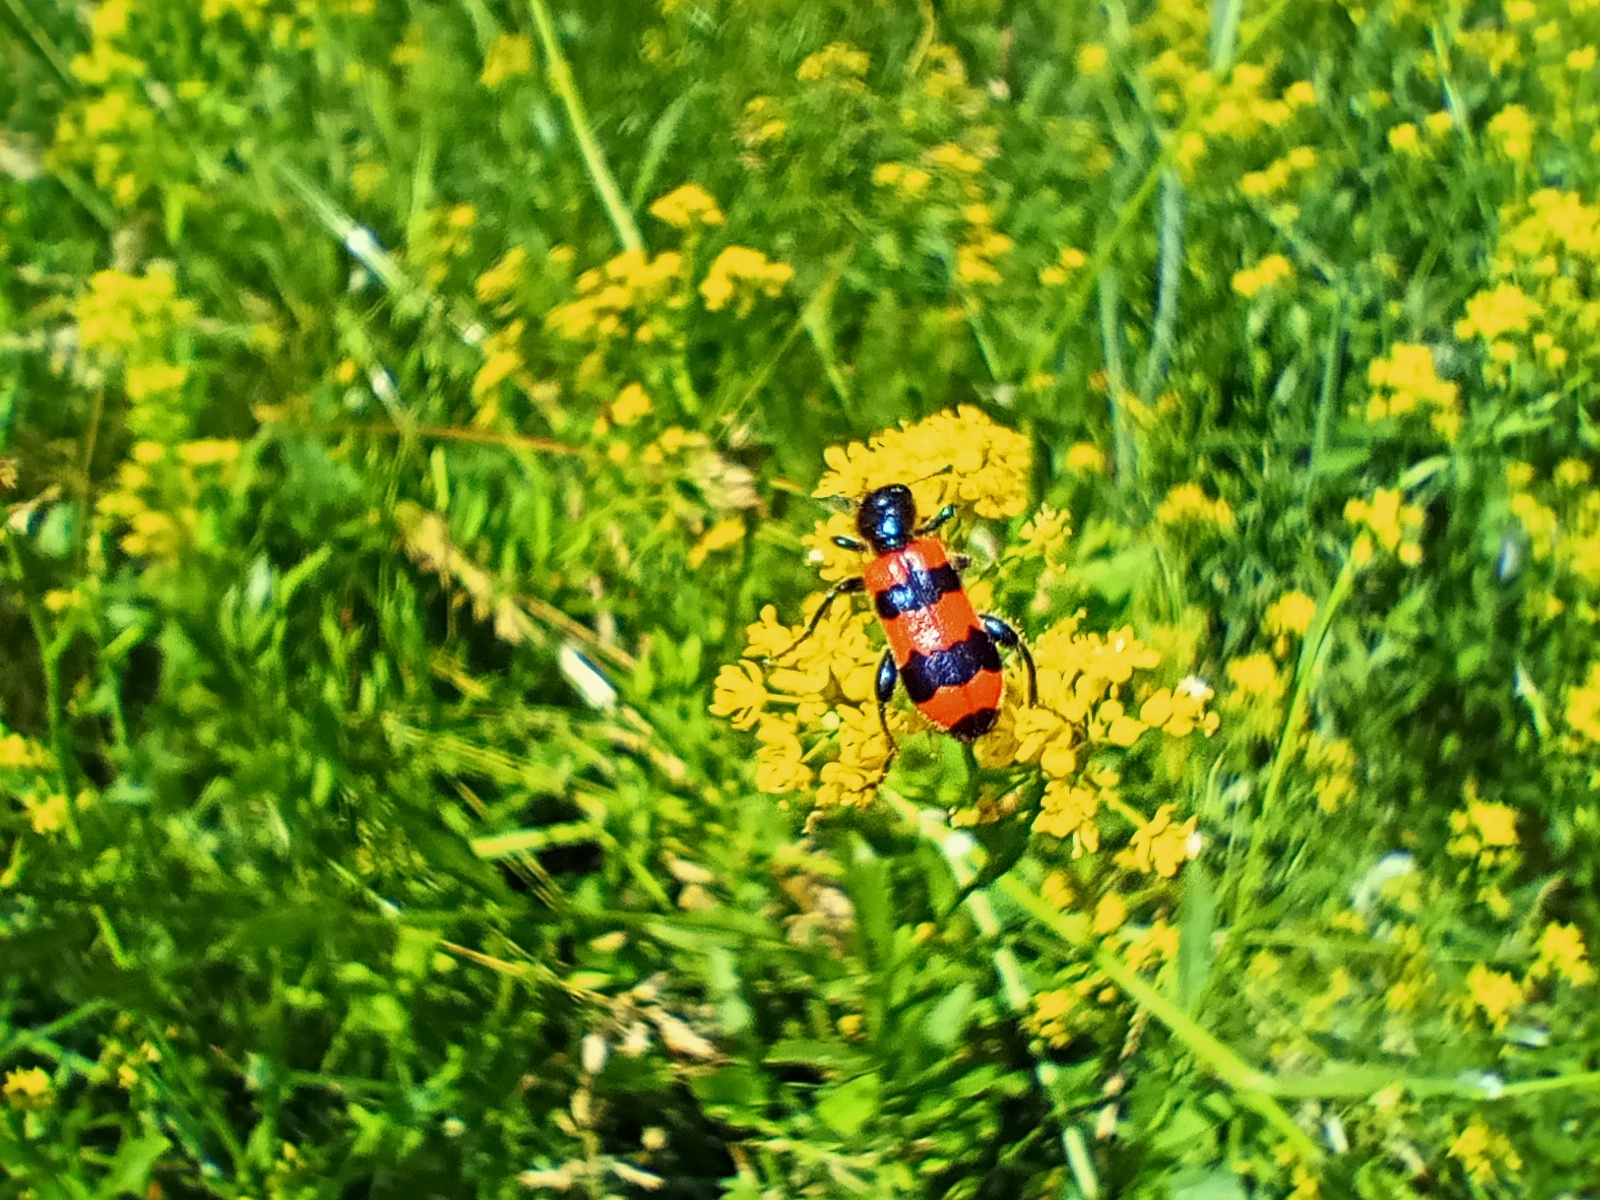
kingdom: Animalia
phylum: Arthropoda
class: Insecta
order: Coleoptera
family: Cleridae
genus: Trichodes
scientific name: Trichodes apiarius
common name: Bee-eating beetle
